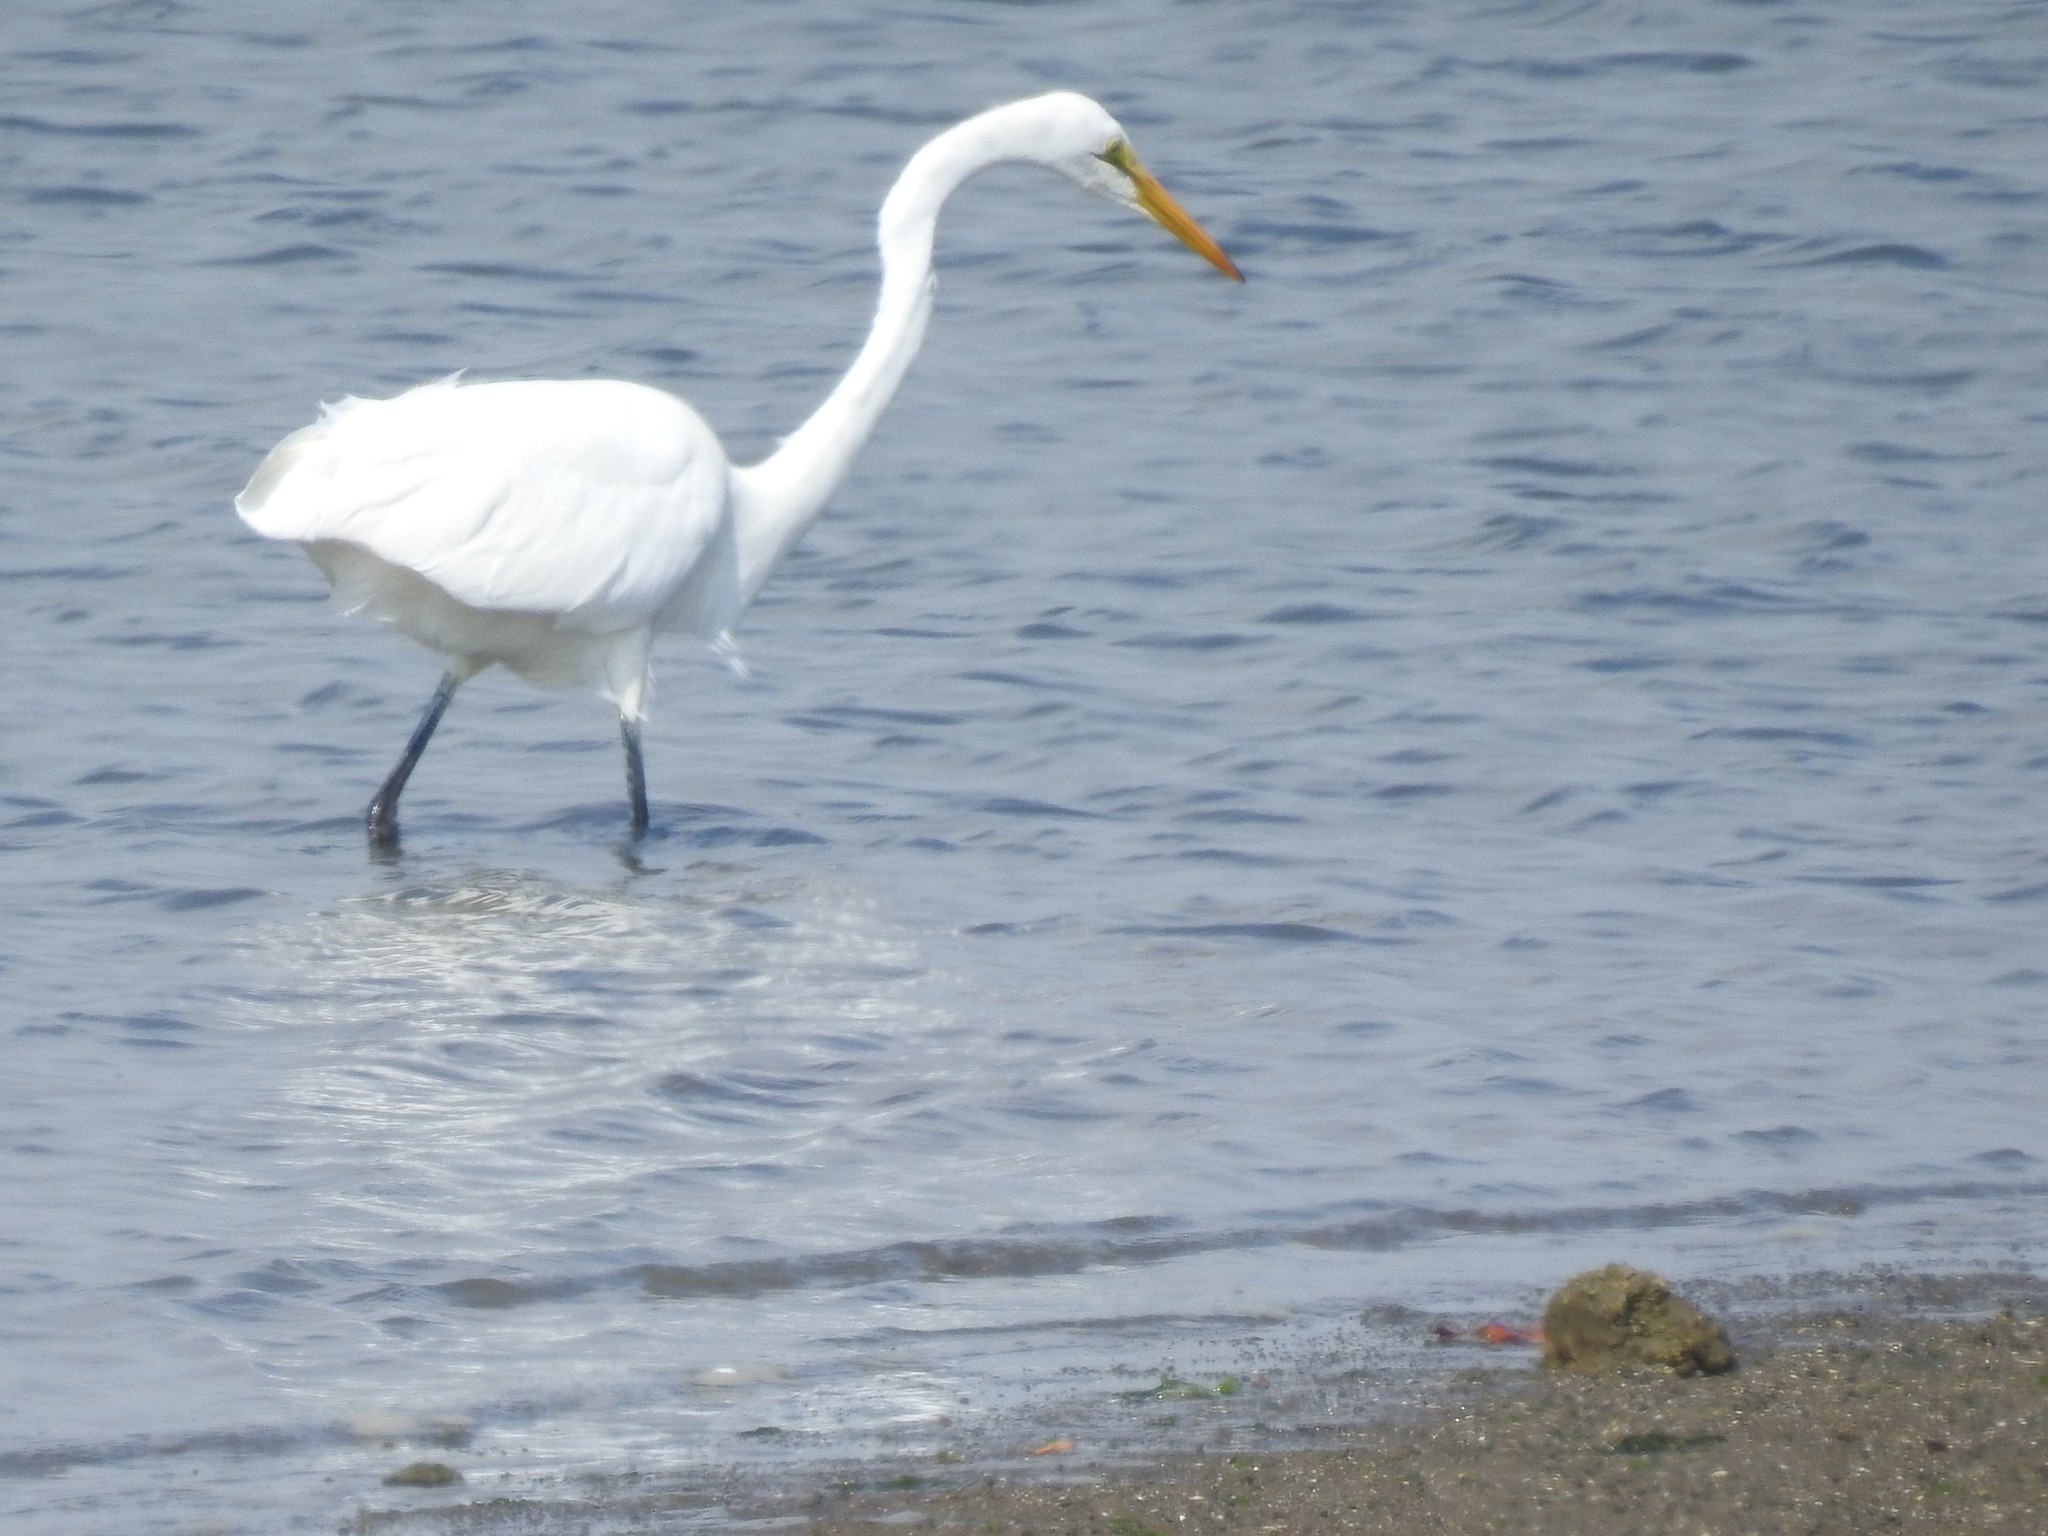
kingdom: Animalia
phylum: Chordata
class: Aves
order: Pelecaniformes
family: Ardeidae
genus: Ardea
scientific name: Ardea alba
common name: Great egret
